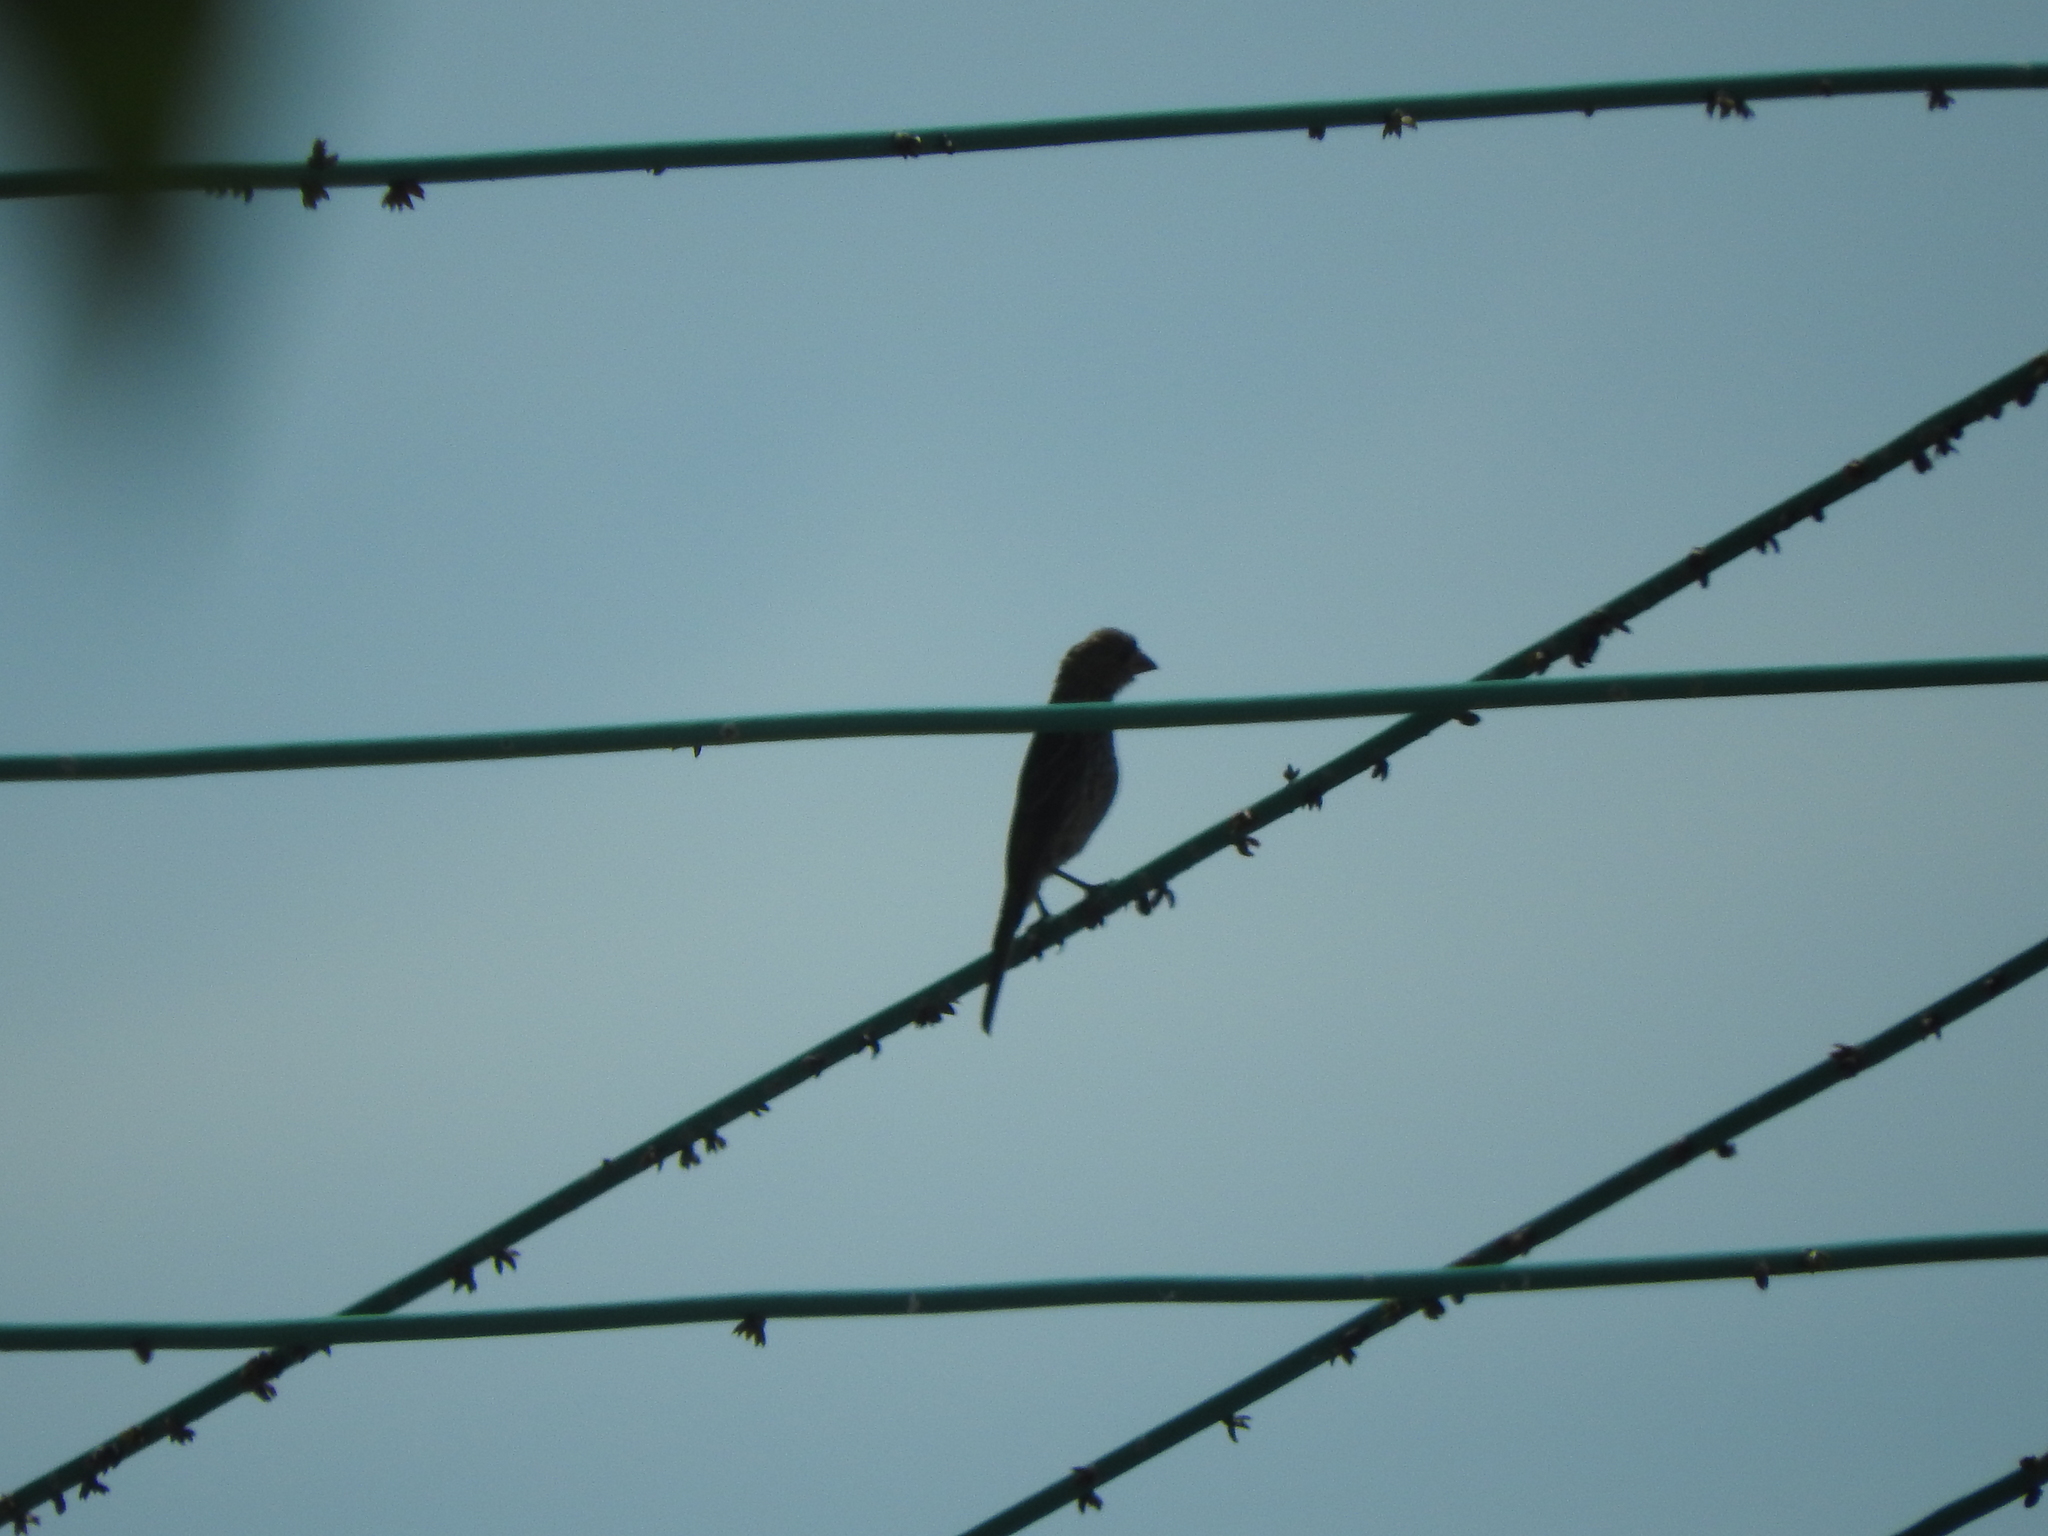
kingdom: Animalia
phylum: Chordata
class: Aves
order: Passeriformes
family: Fringillidae
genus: Haemorhous
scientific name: Haemorhous mexicanus
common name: House finch
